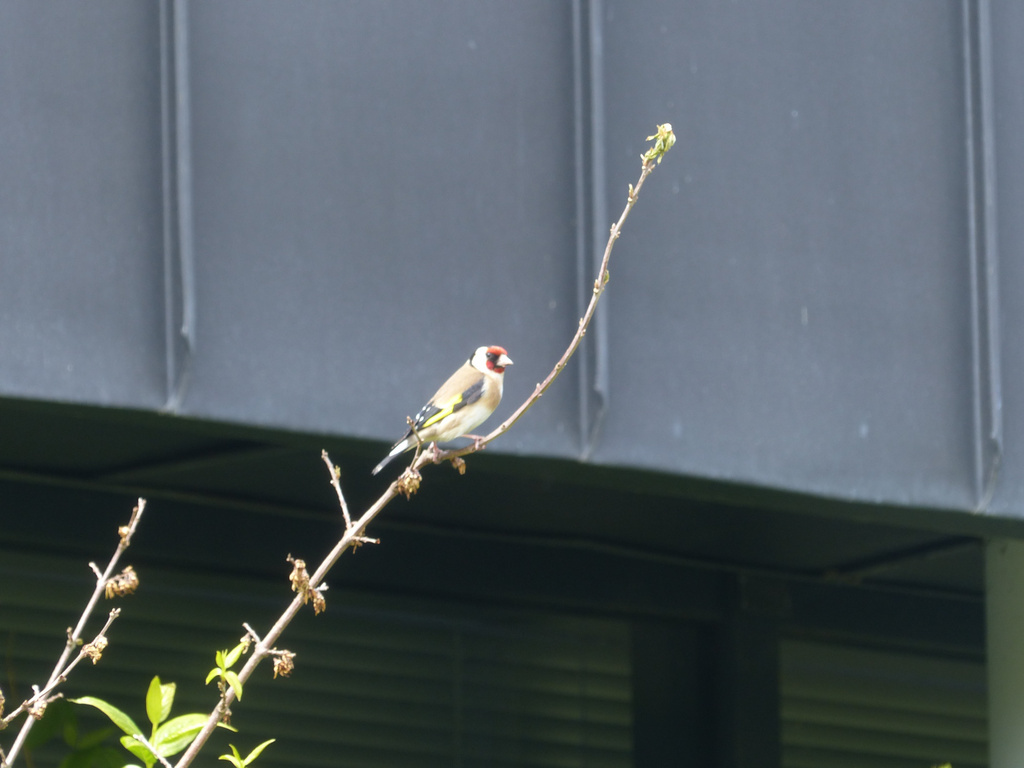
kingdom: Animalia
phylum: Chordata
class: Aves
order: Passeriformes
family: Fringillidae
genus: Carduelis
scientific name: Carduelis carduelis
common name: European goldfinch
